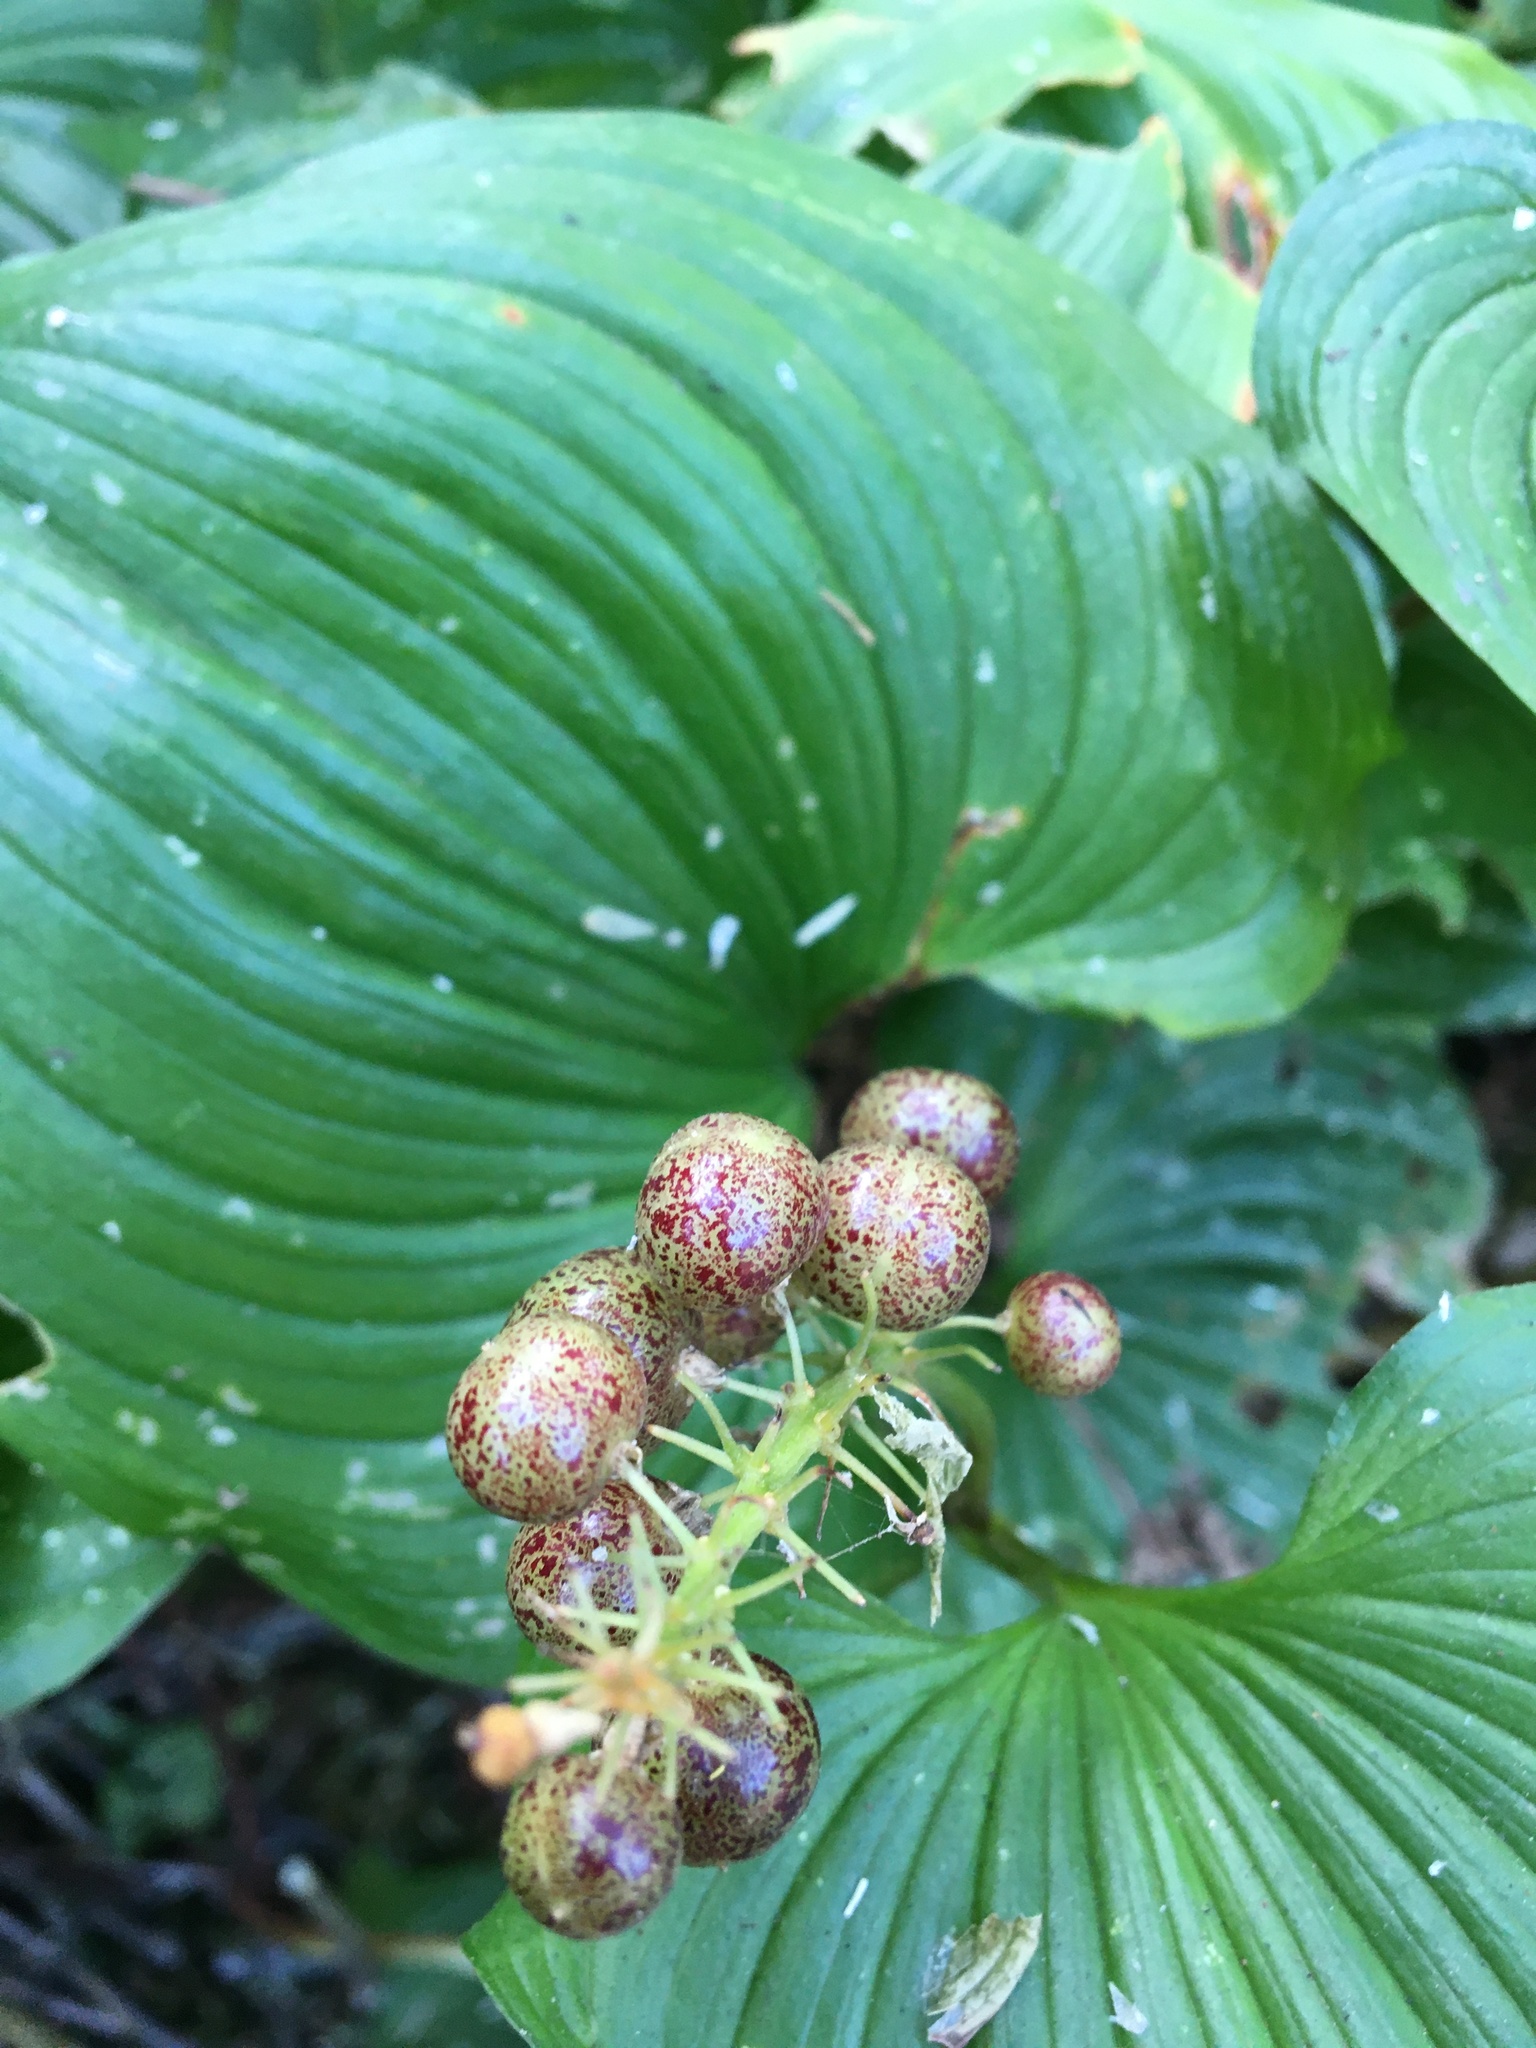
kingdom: Plantae
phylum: Tracheophyta
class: Liliopsida
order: Asparagales
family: Asparagaceae
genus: Maianthemum
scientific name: Maianthemum dilatatum
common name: False lily-of-the-valley
